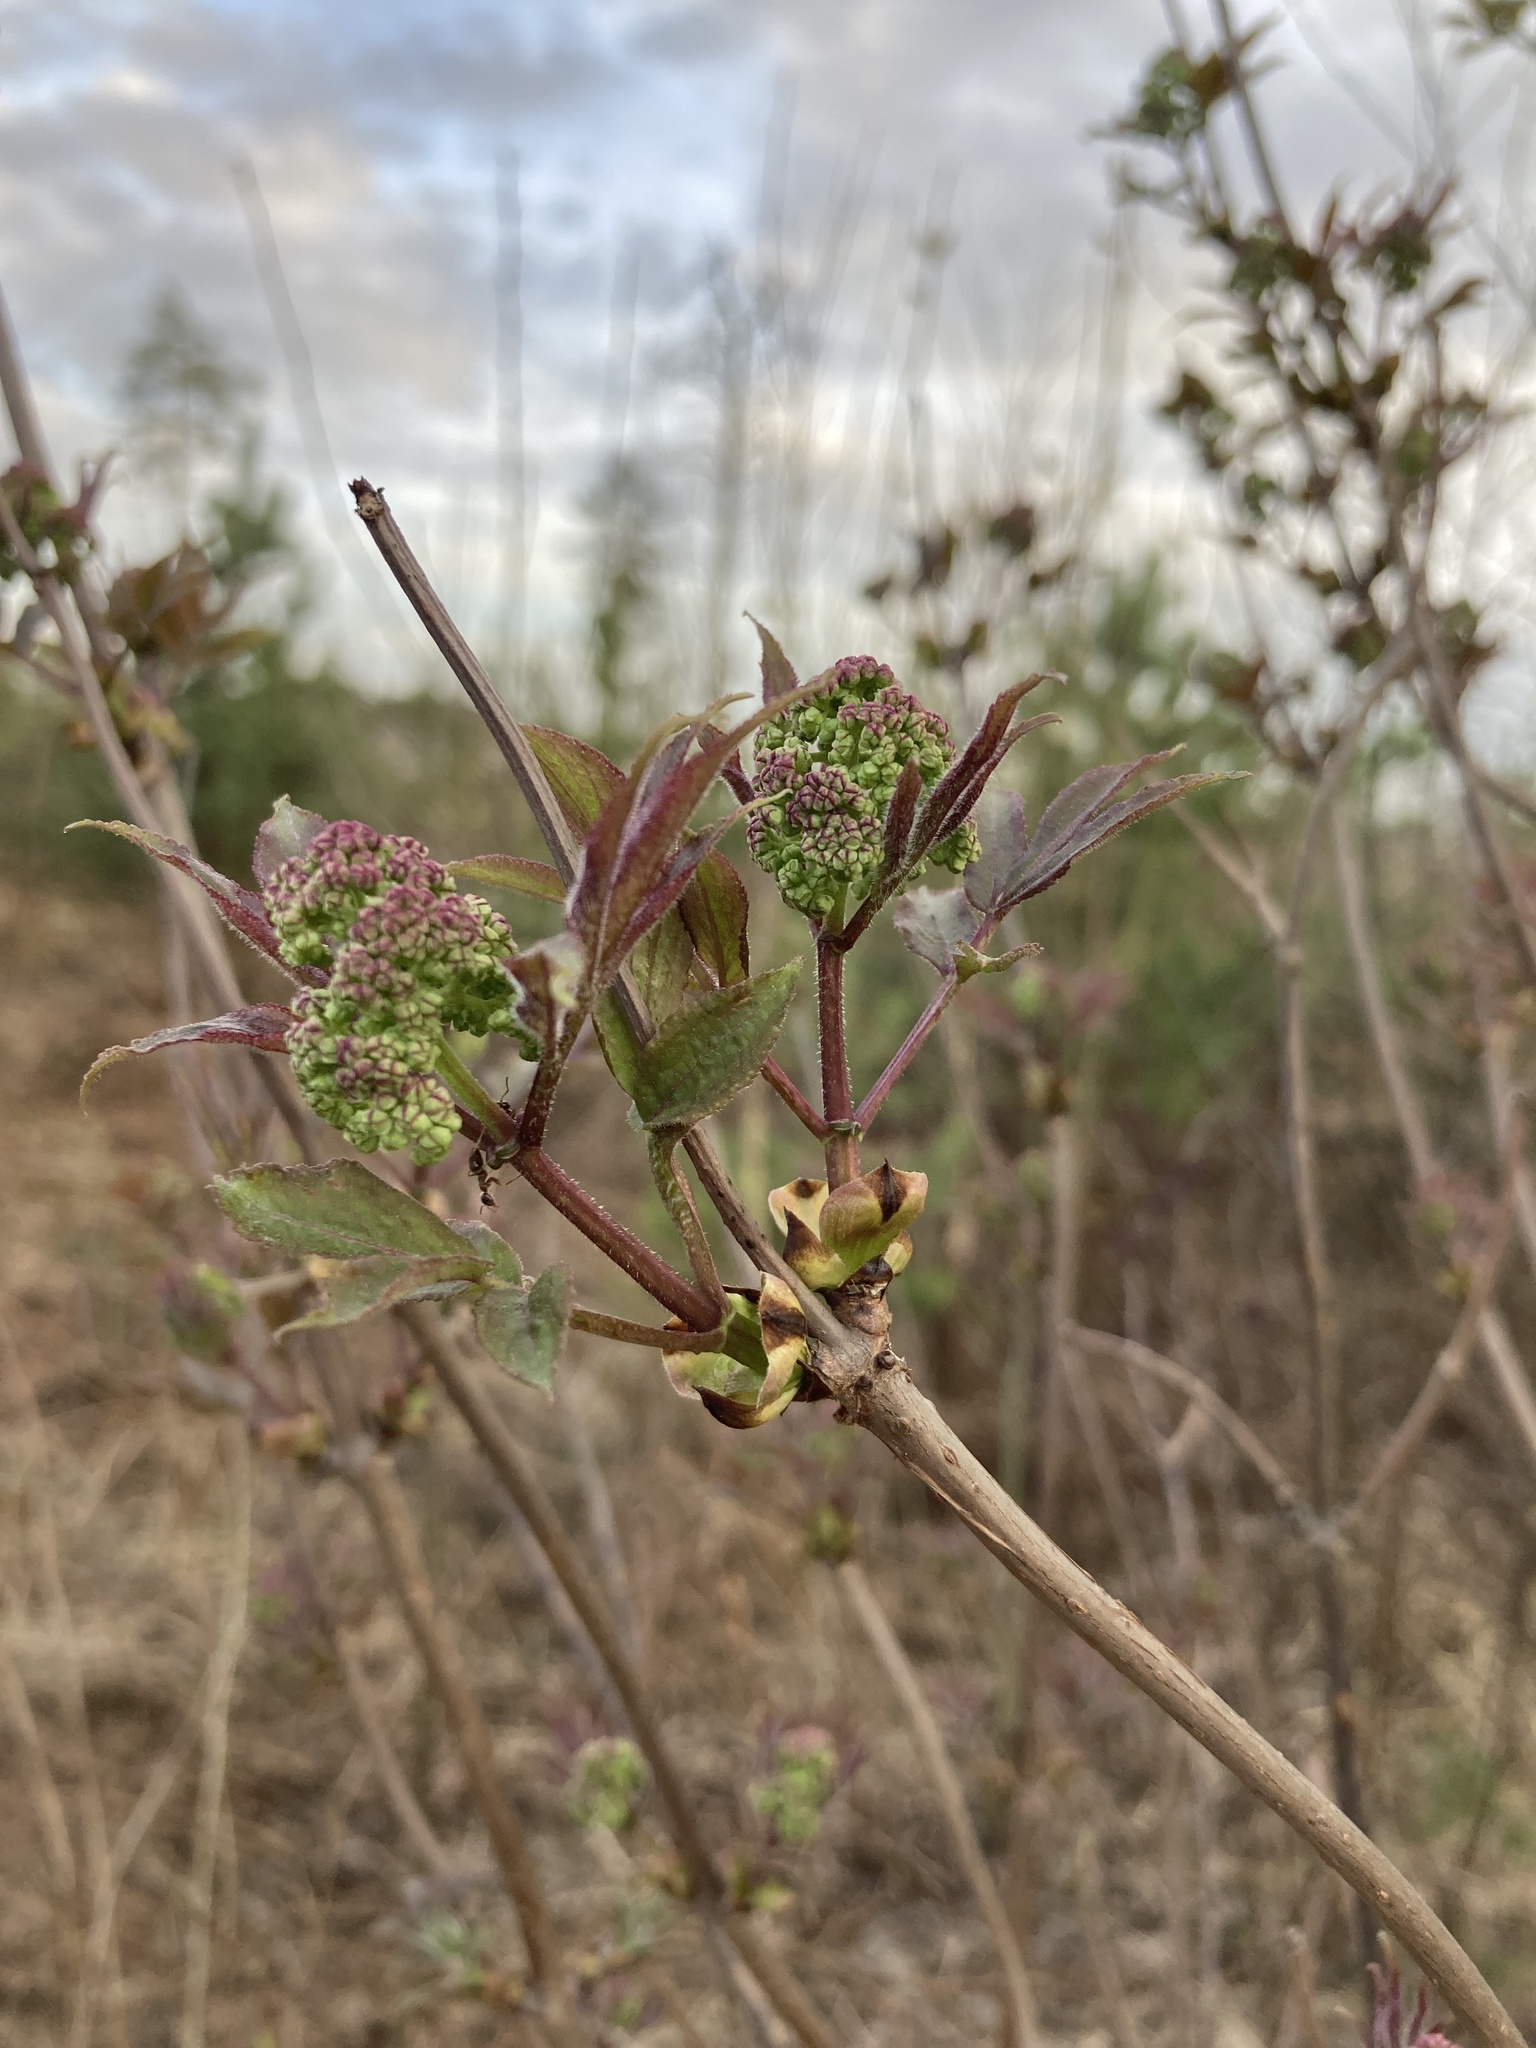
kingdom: Plantae
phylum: Tracheophyta
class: Magnoliopsida
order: Dipsacales
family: Viburnaceae
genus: Sambucus
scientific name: Sambucus racemosa
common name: Red-berried elder
